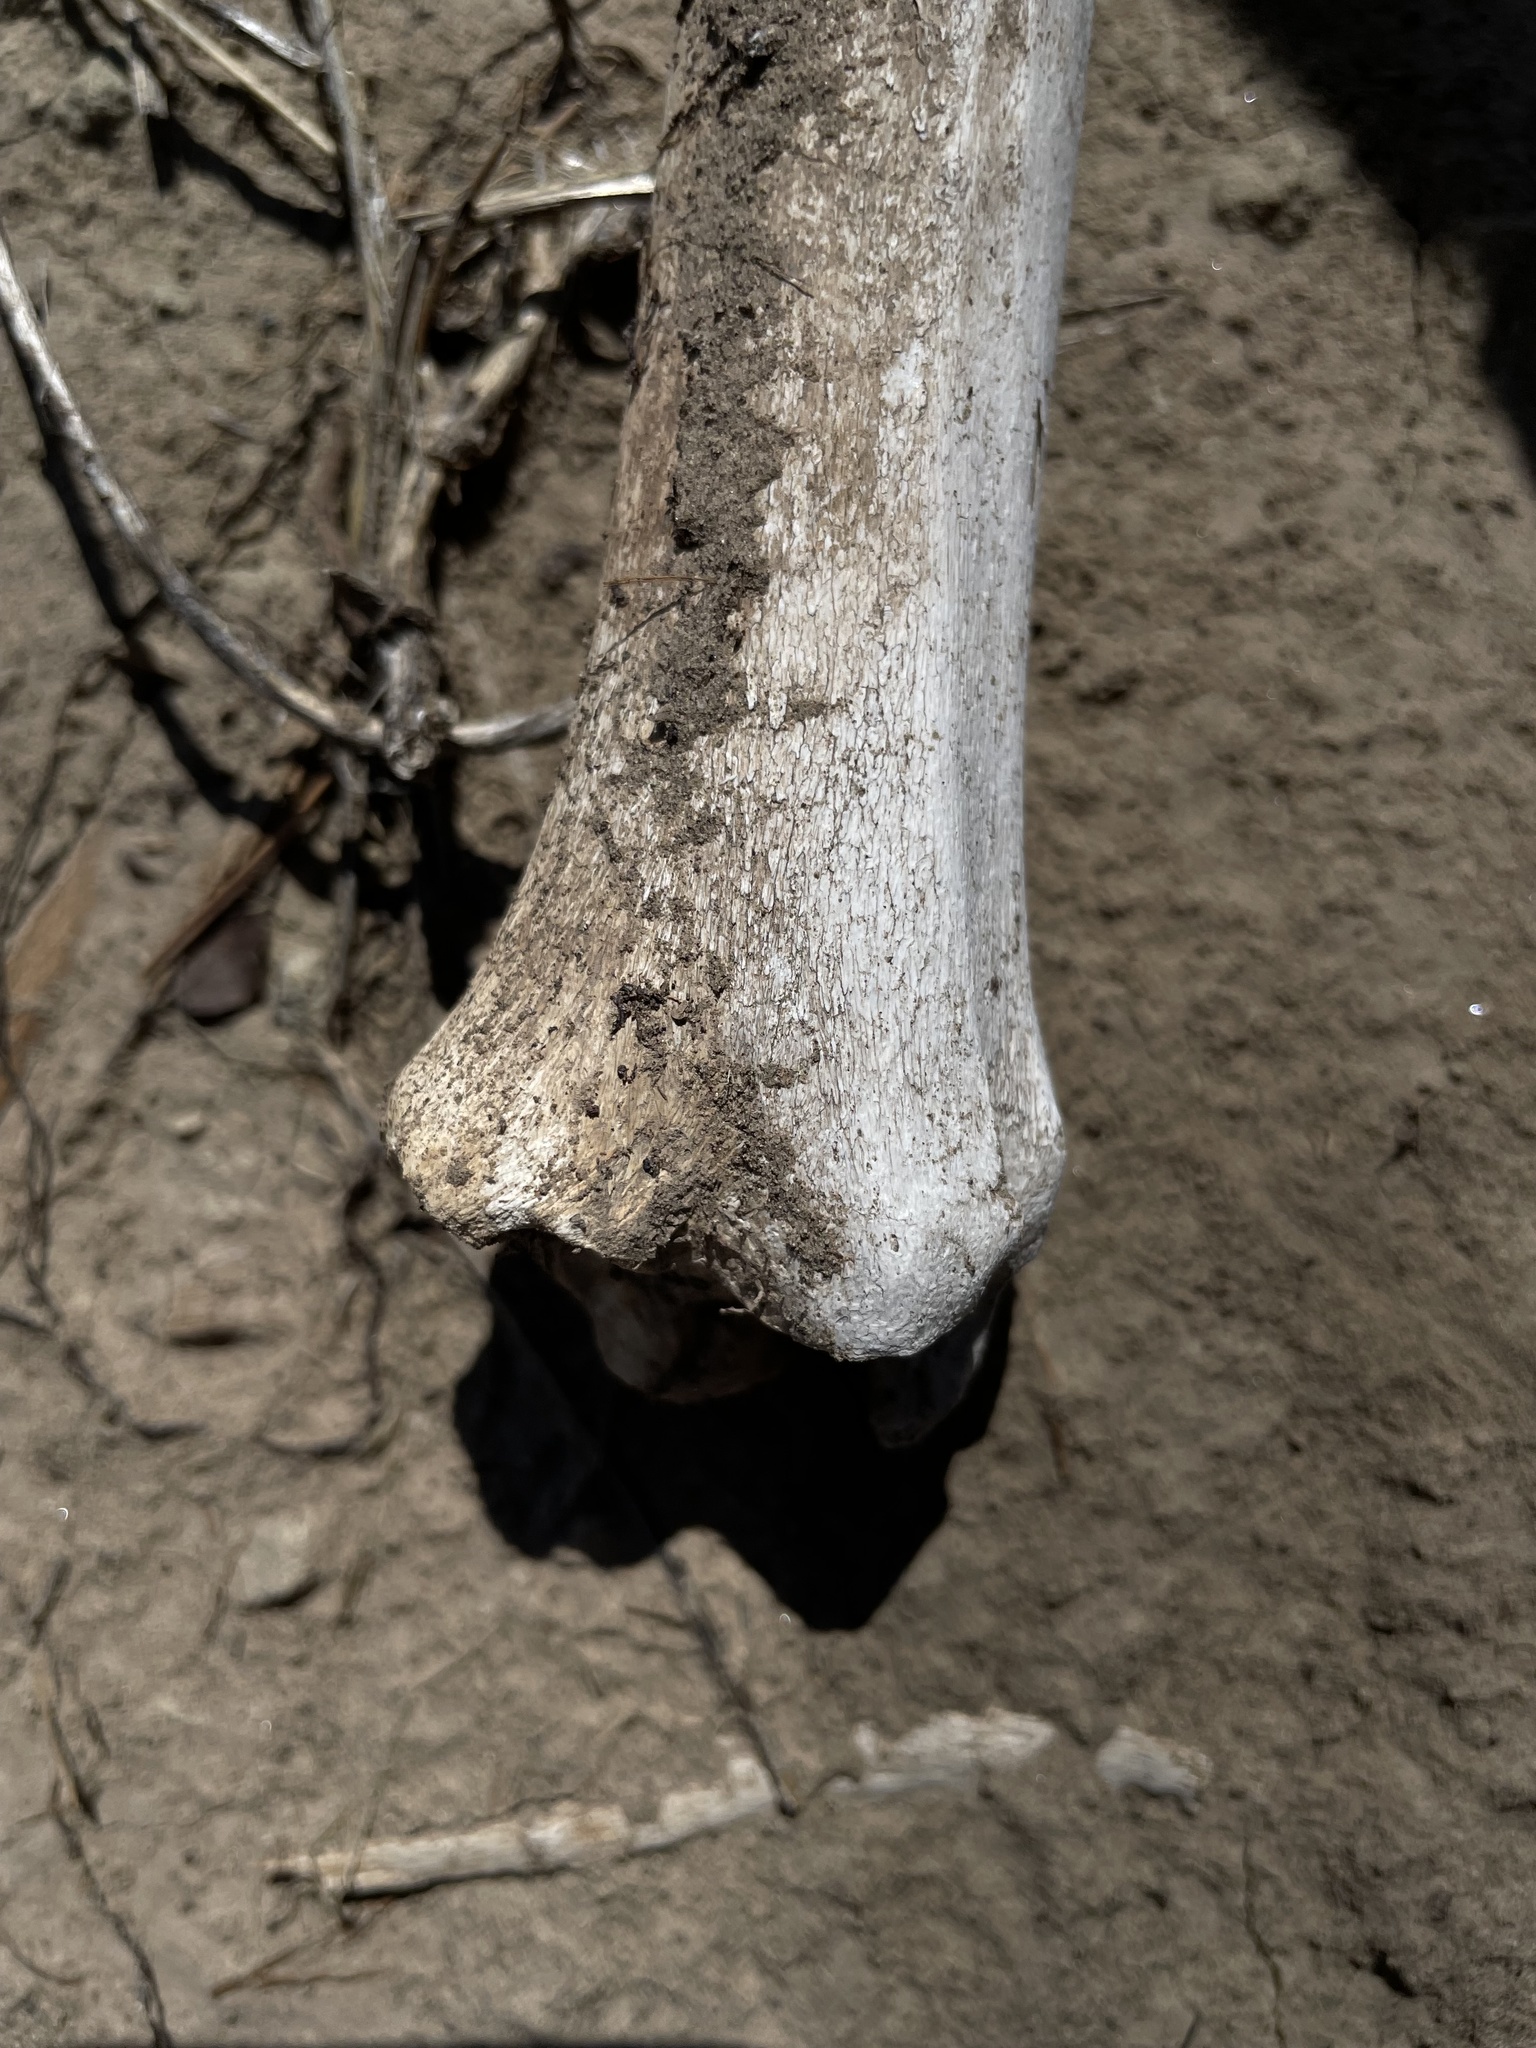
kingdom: Animalia
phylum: Chordata
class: Mammalia
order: Artiodactyla
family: Cervidae
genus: Odocoileus
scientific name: Odocoileus hemionus
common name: Mule deer
